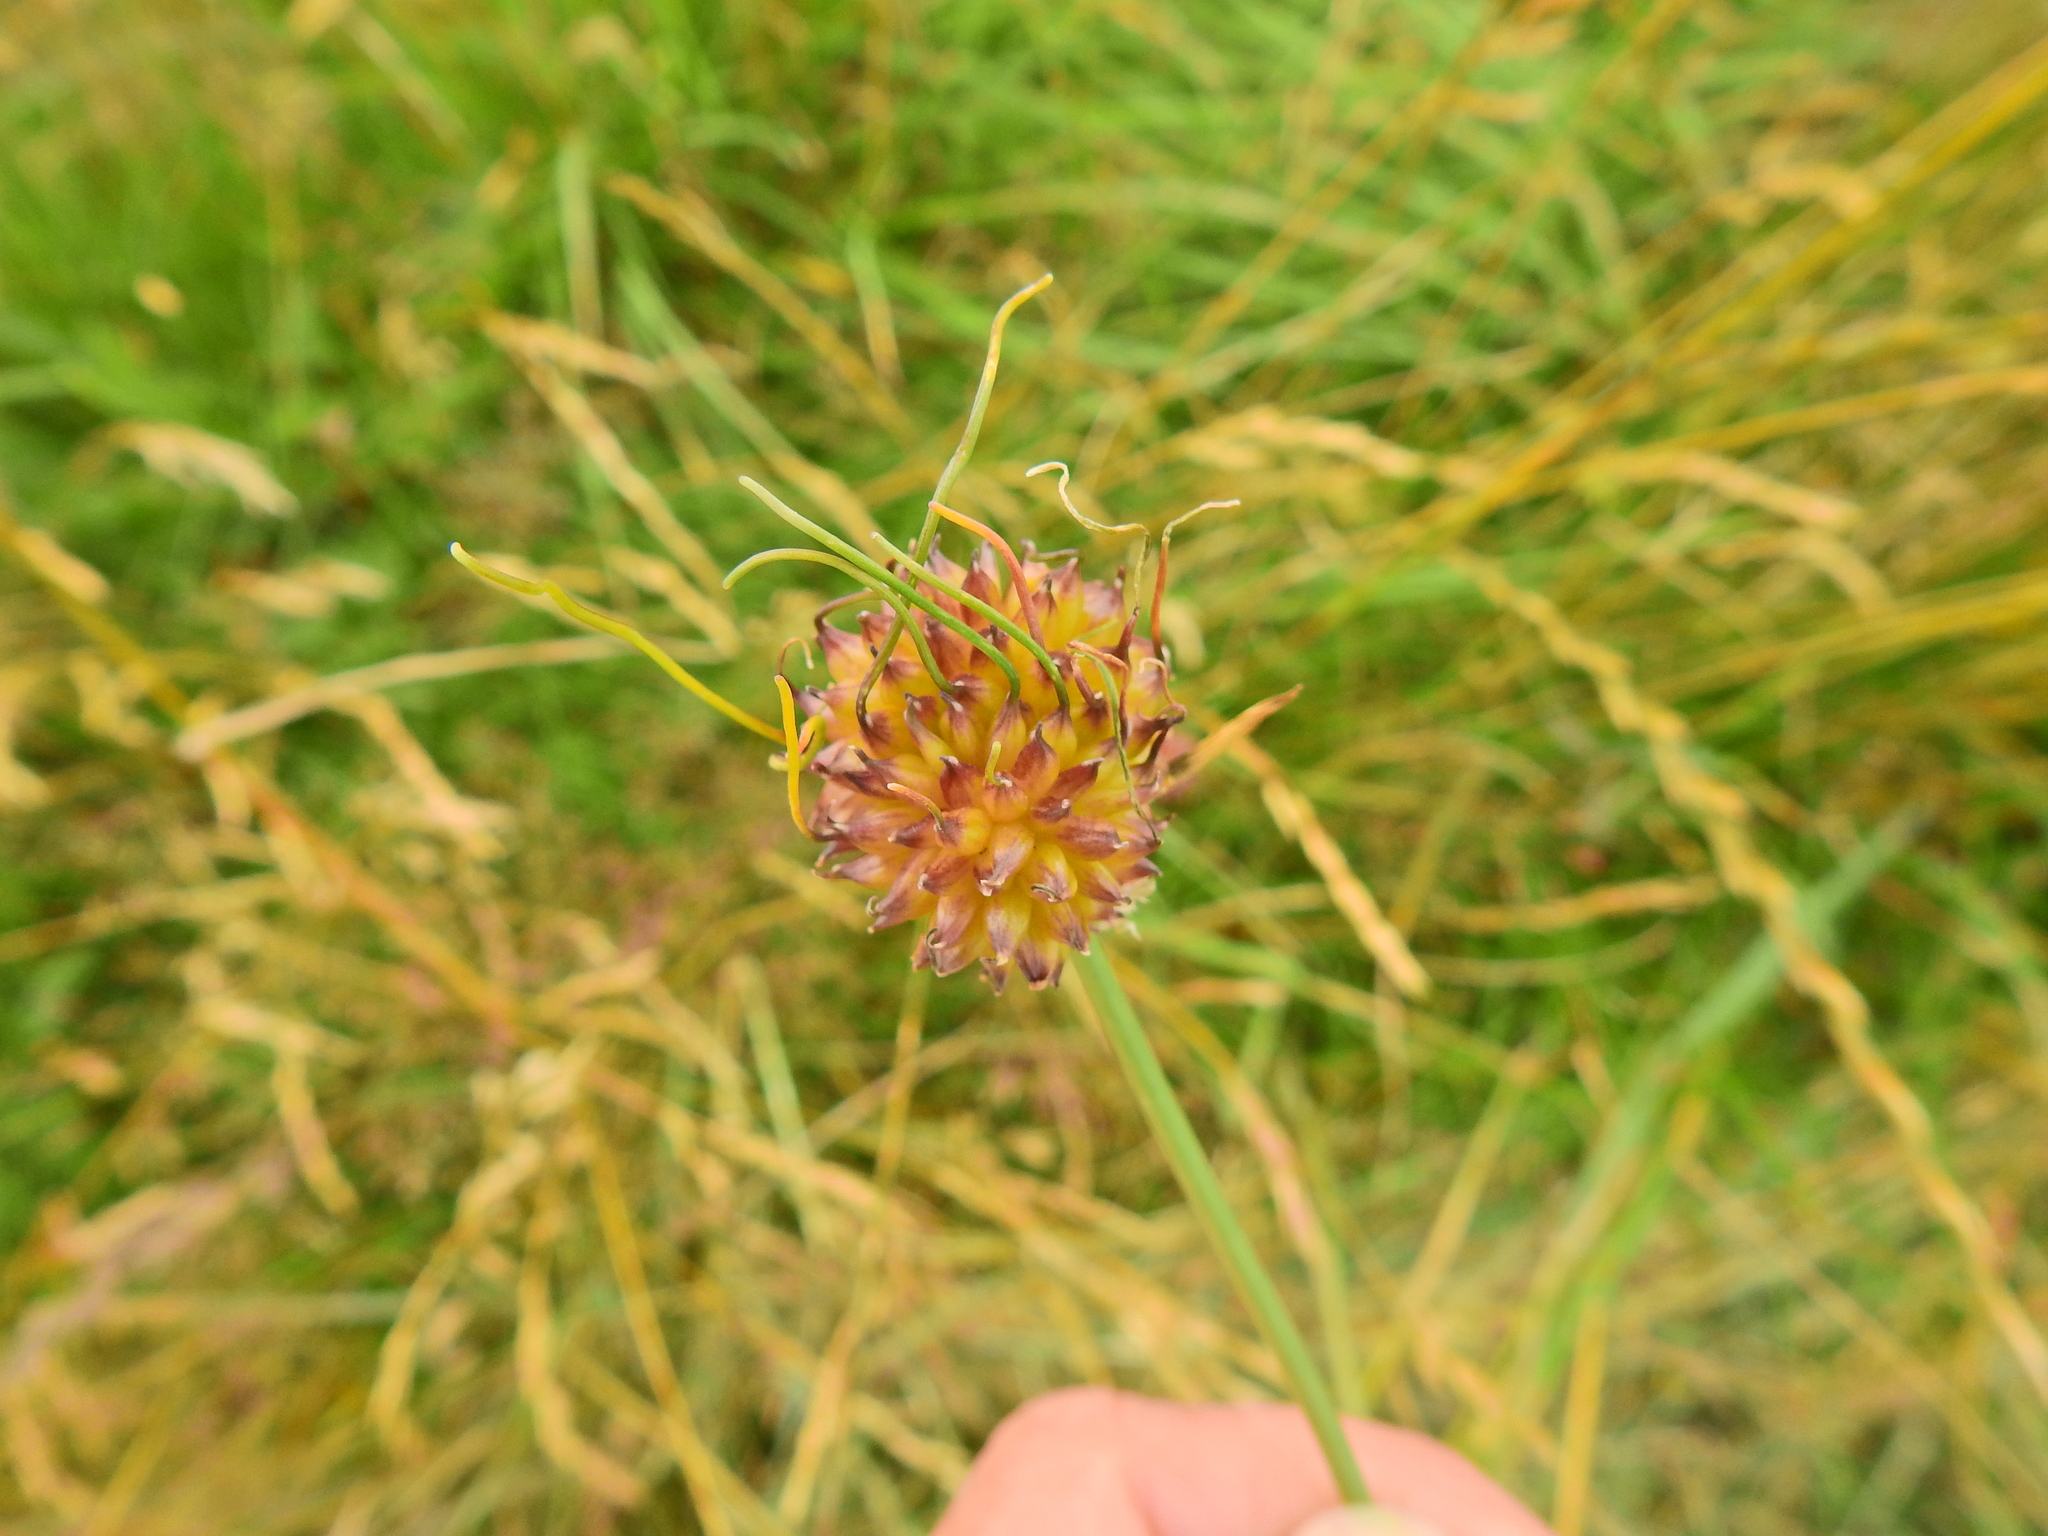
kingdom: Plantae
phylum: Tracheophyta
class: Liliopsida
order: Asparagales
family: Amaryllidaceae
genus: Allium
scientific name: Allium vineale
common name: Crow garlic
